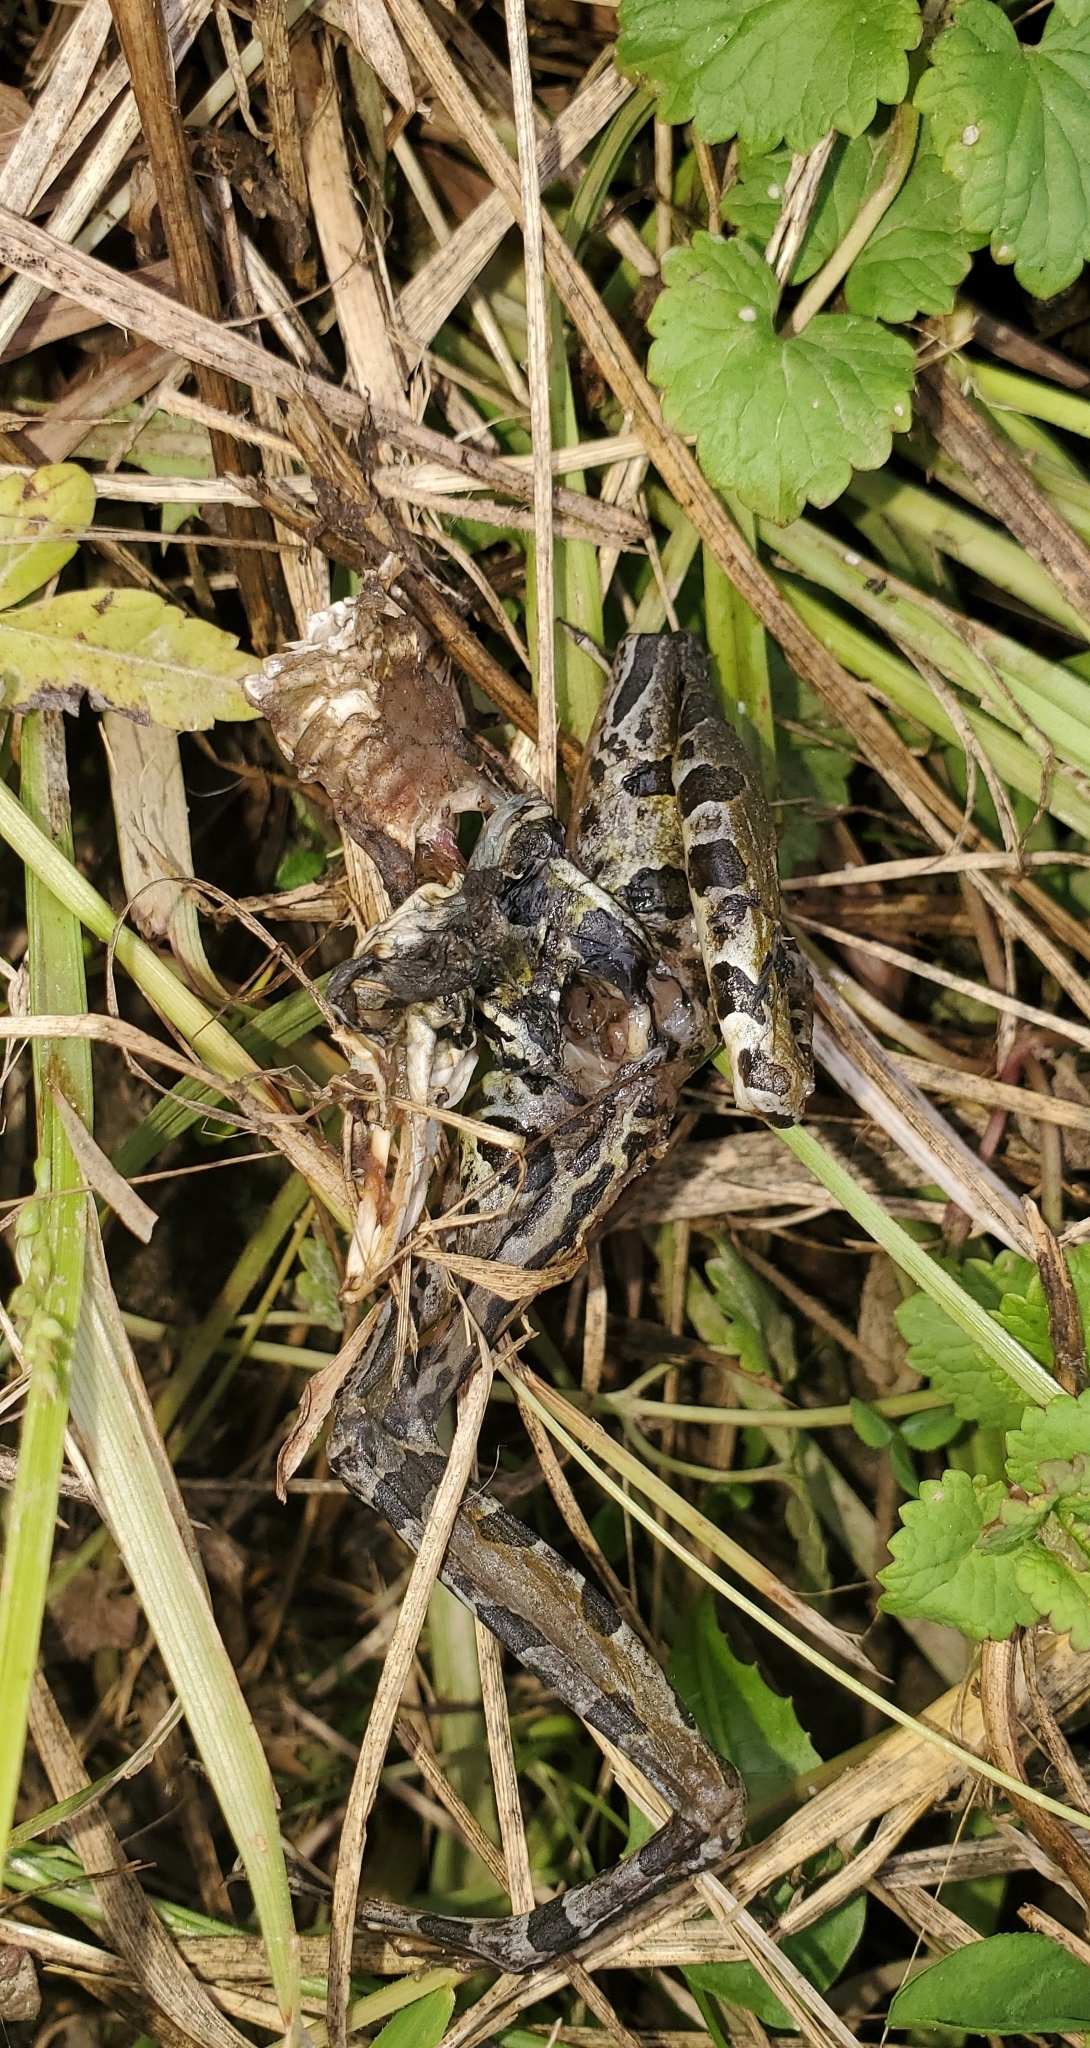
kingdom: Animalia
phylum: Chordata
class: Amphibia
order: Anura
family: Ranidae
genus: Lithobates
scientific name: Lithobates pipiens
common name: Northern leopard frog
